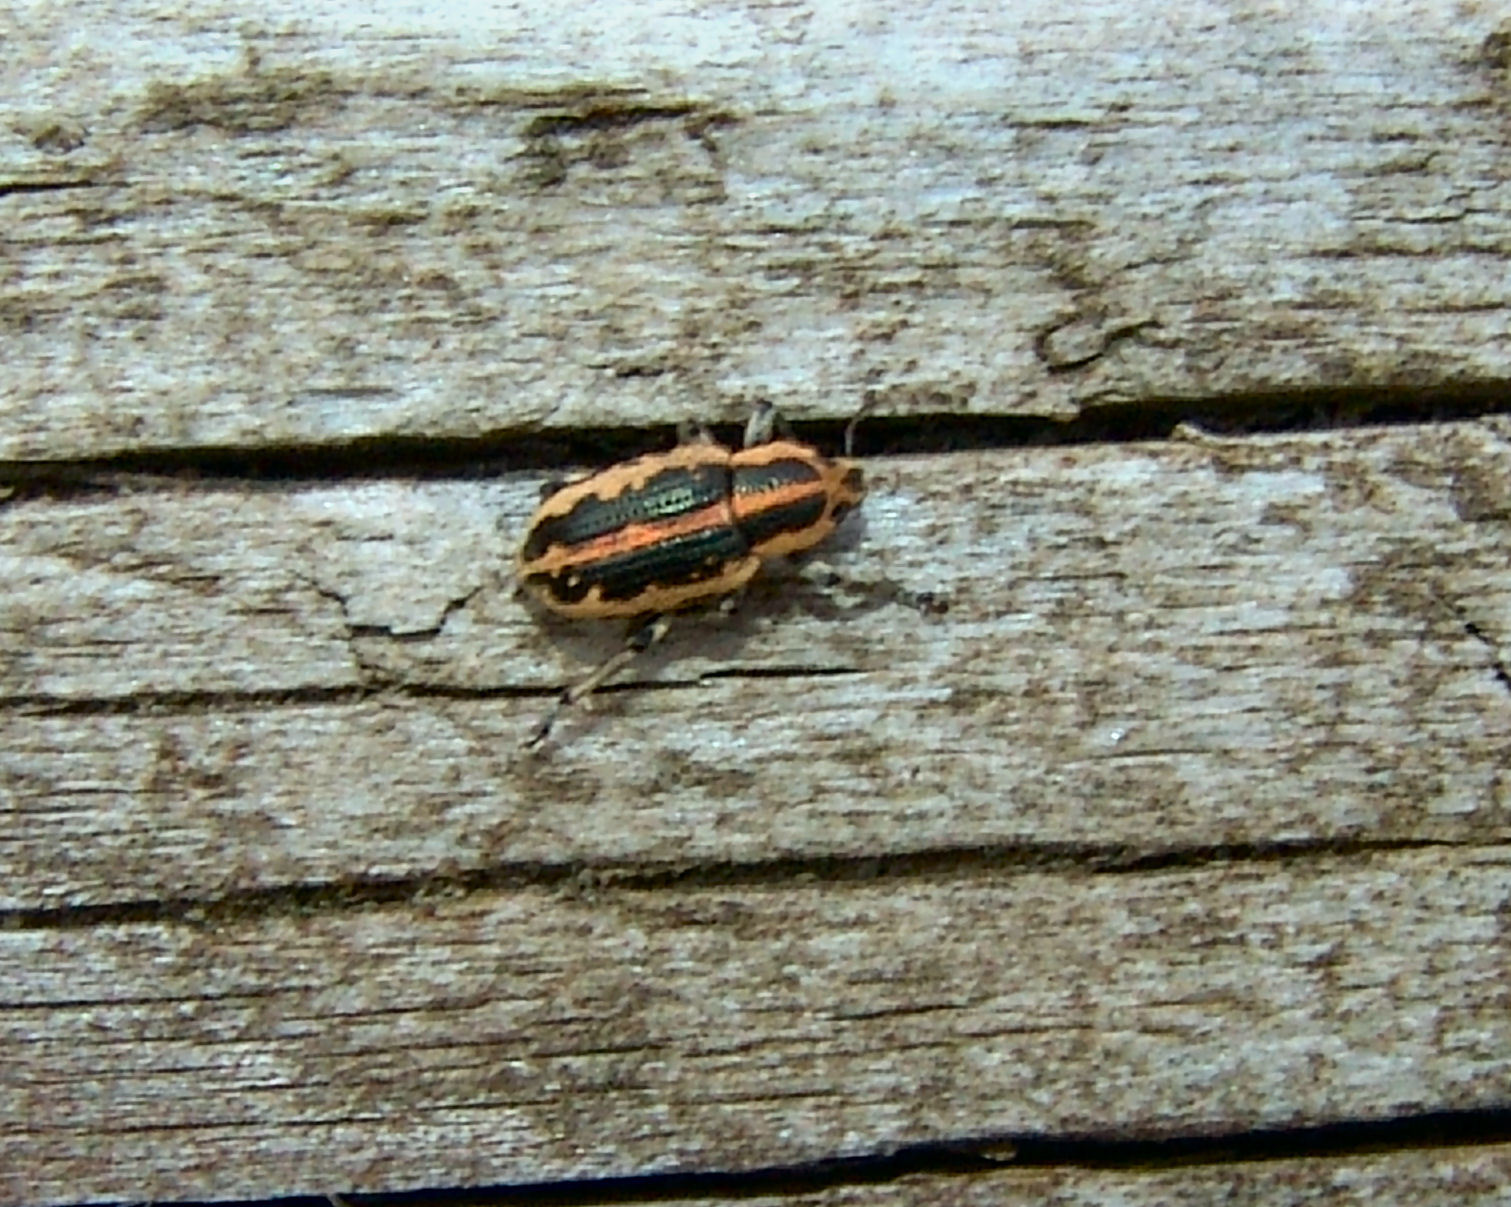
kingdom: Animalia
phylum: Arthropoda
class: Insecta
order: Coleoptera
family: Curculionidae
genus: Eudiagogus
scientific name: Eudiagogus rosenschoeldi
